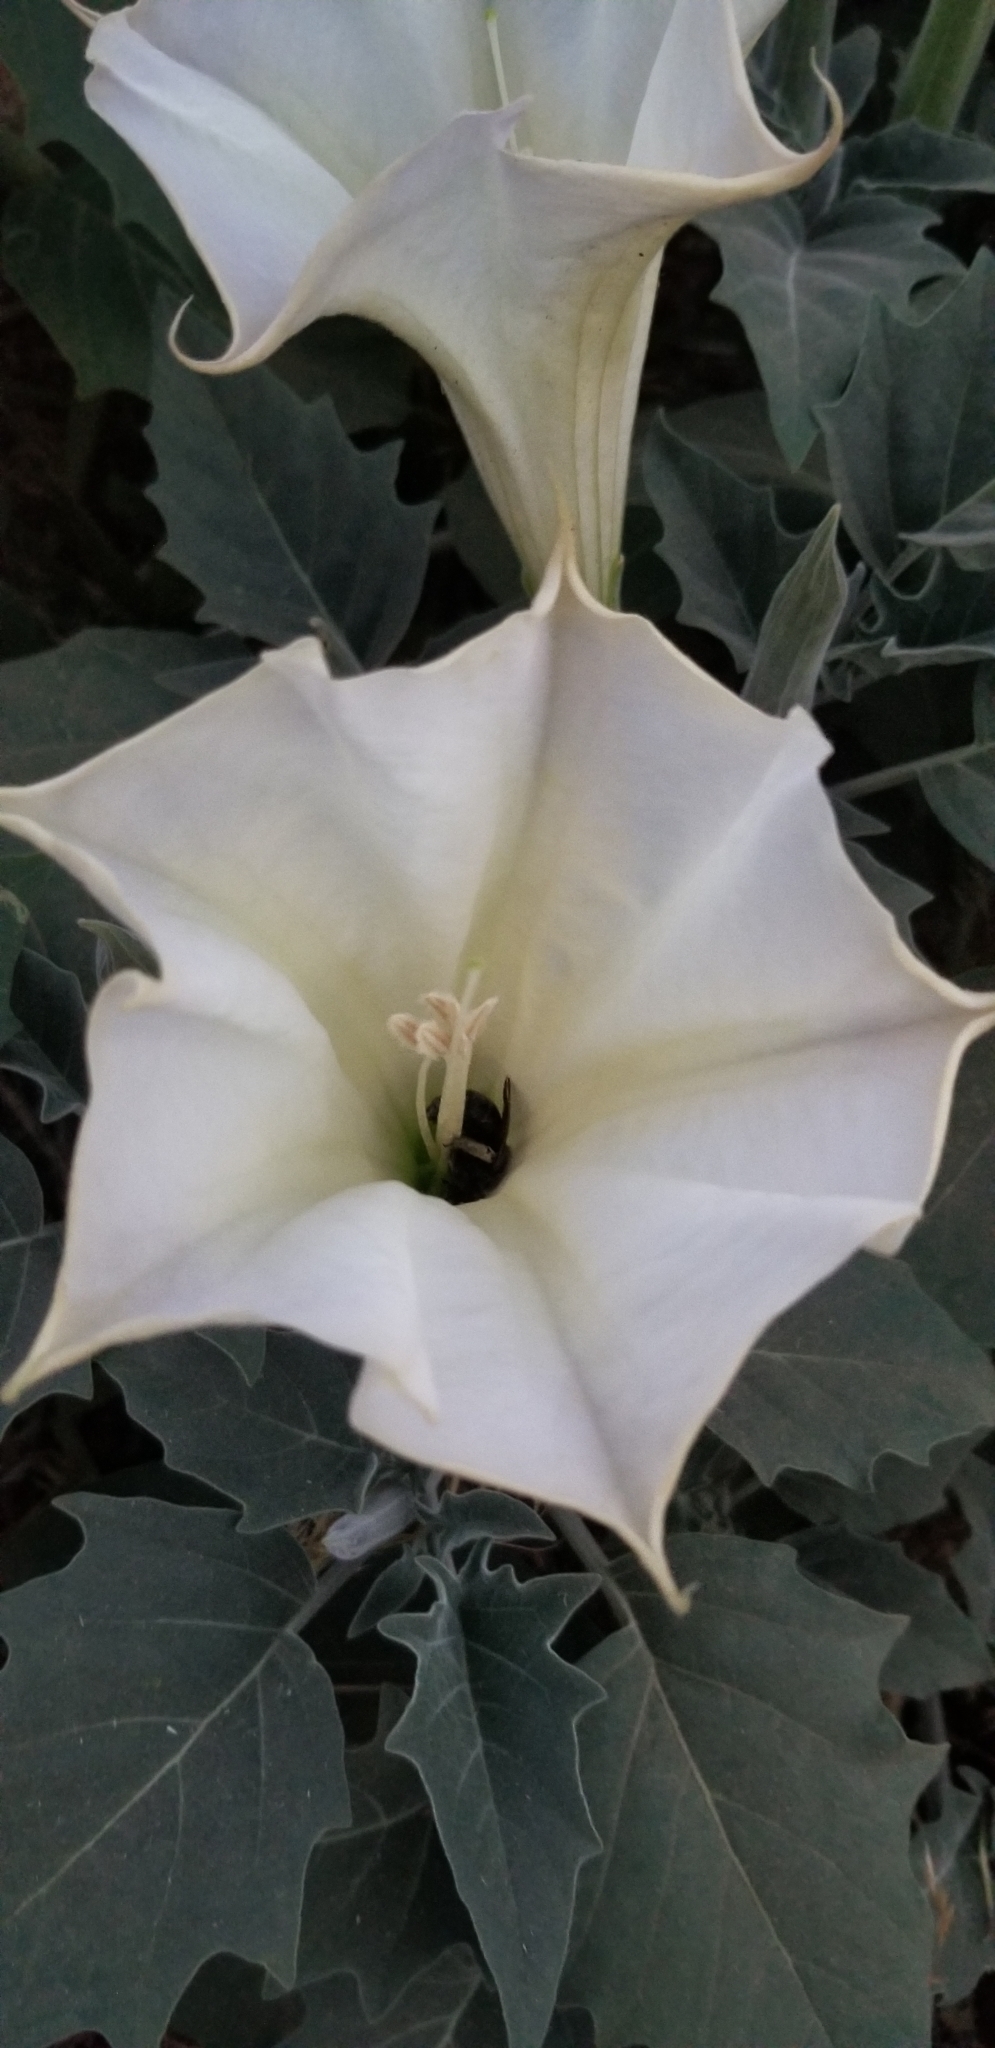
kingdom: Plantae
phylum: Tracheophyta
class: Magnoliopsida
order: Solanales
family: Solanaceae
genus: Datura
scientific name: Datura wrightii
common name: Sacred thorn-apple
